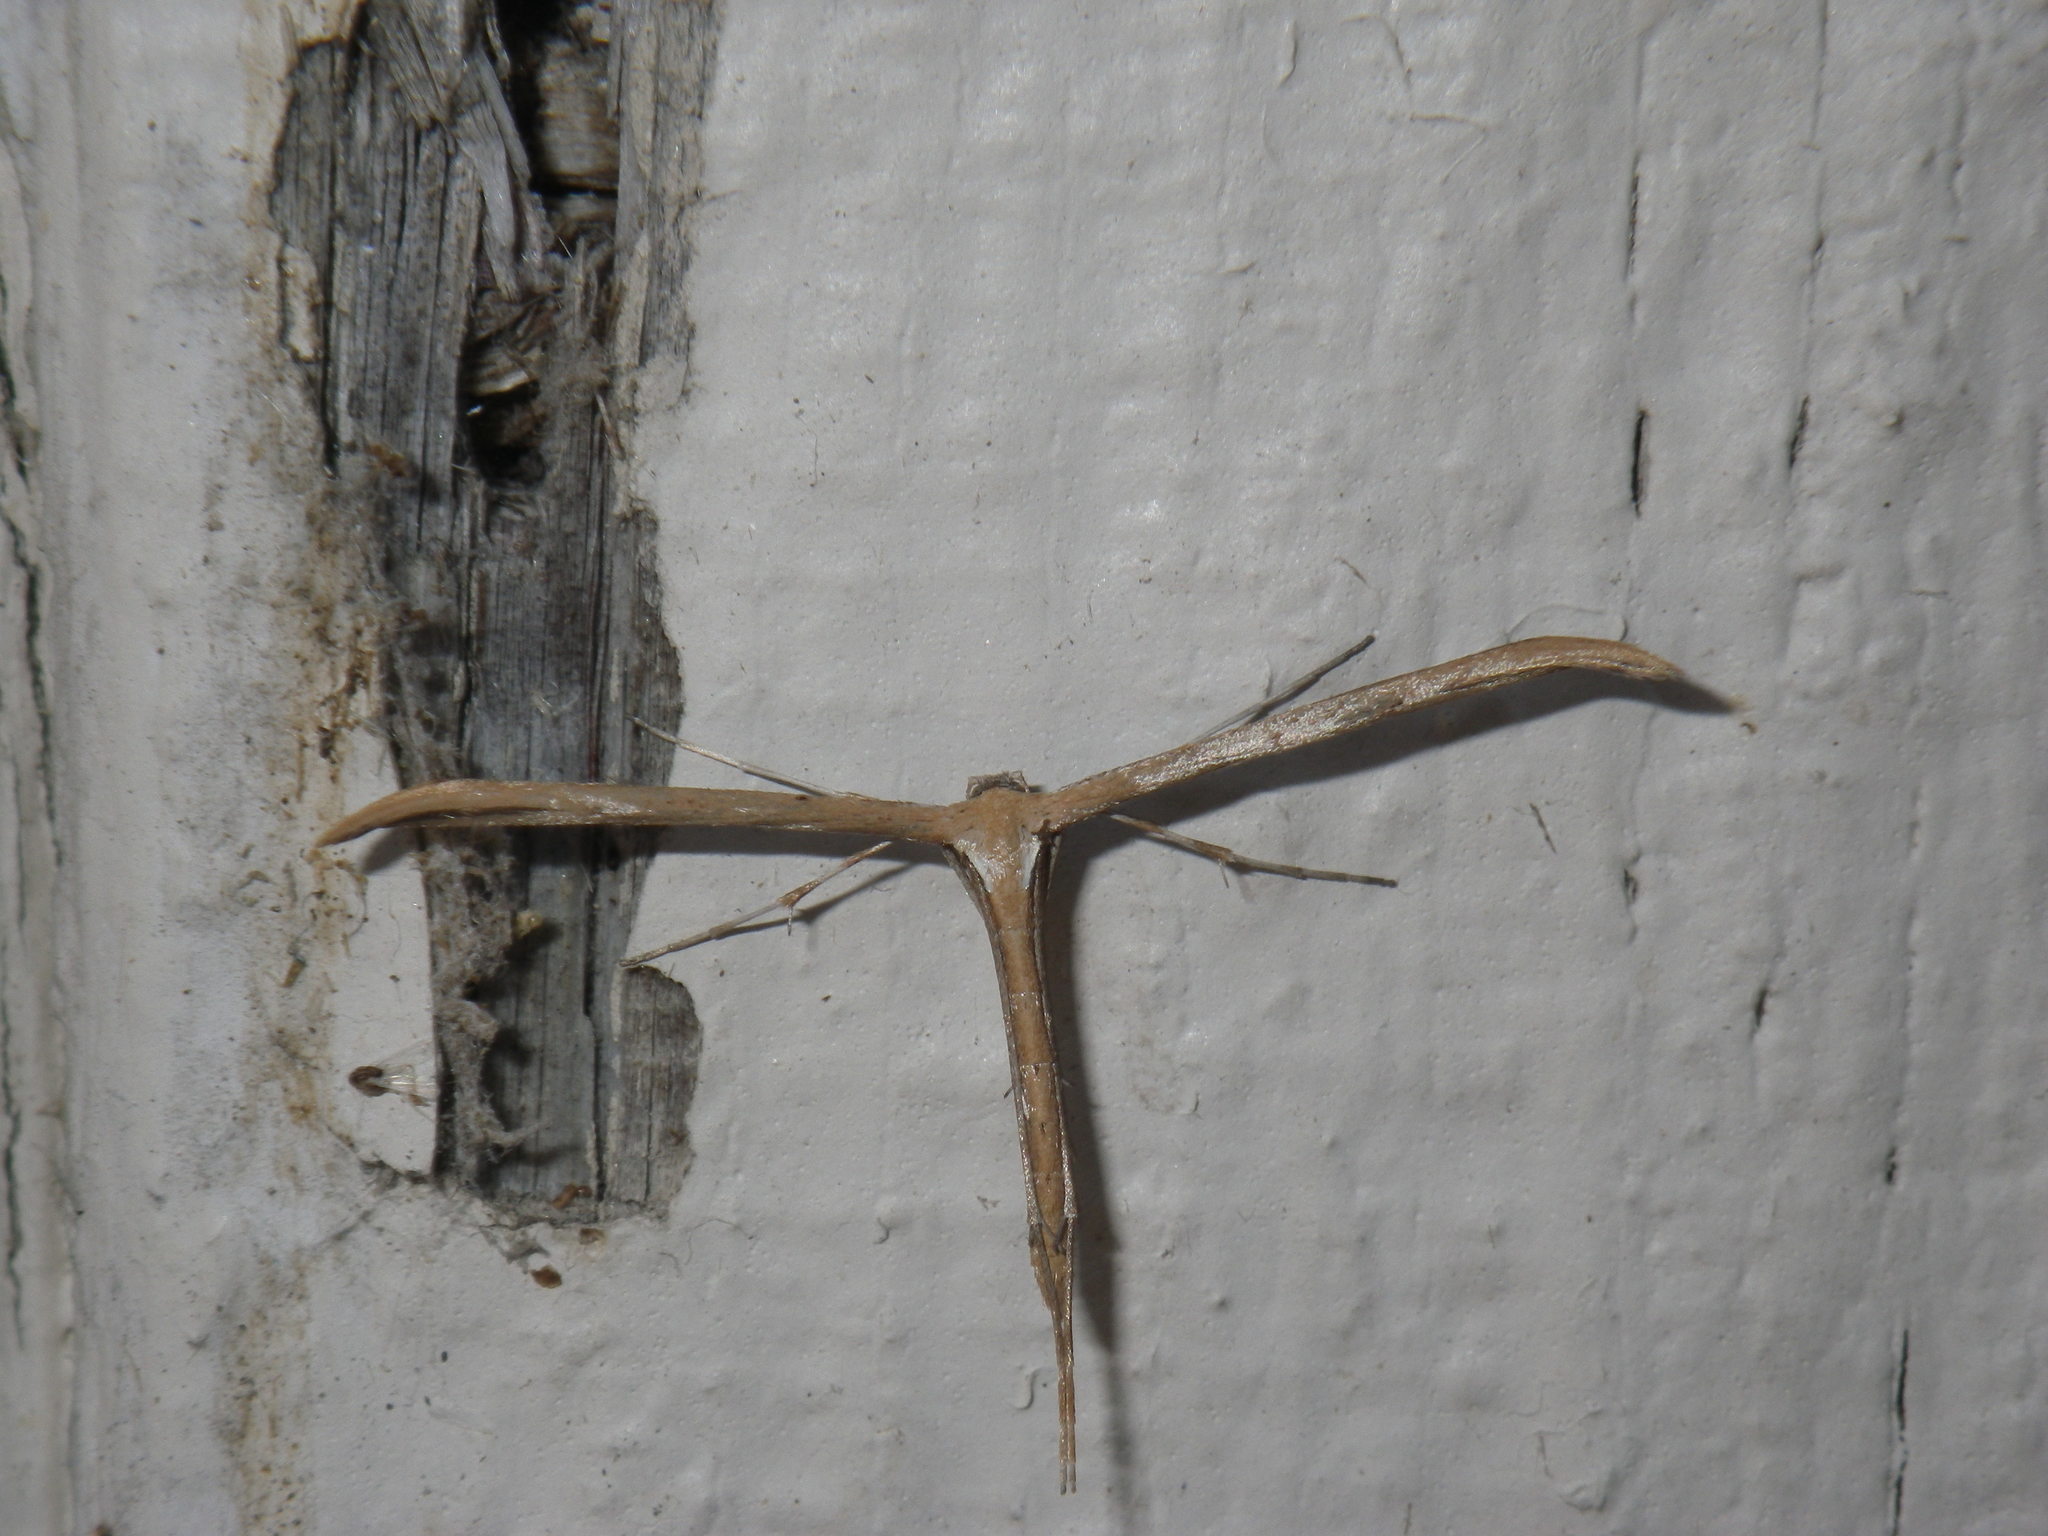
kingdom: Animalia
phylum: Arthropoda
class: Insecta
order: Lepidoptera
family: Pterophoridae
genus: Emmelina
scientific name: Emmelina monodactyla
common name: Common plume
